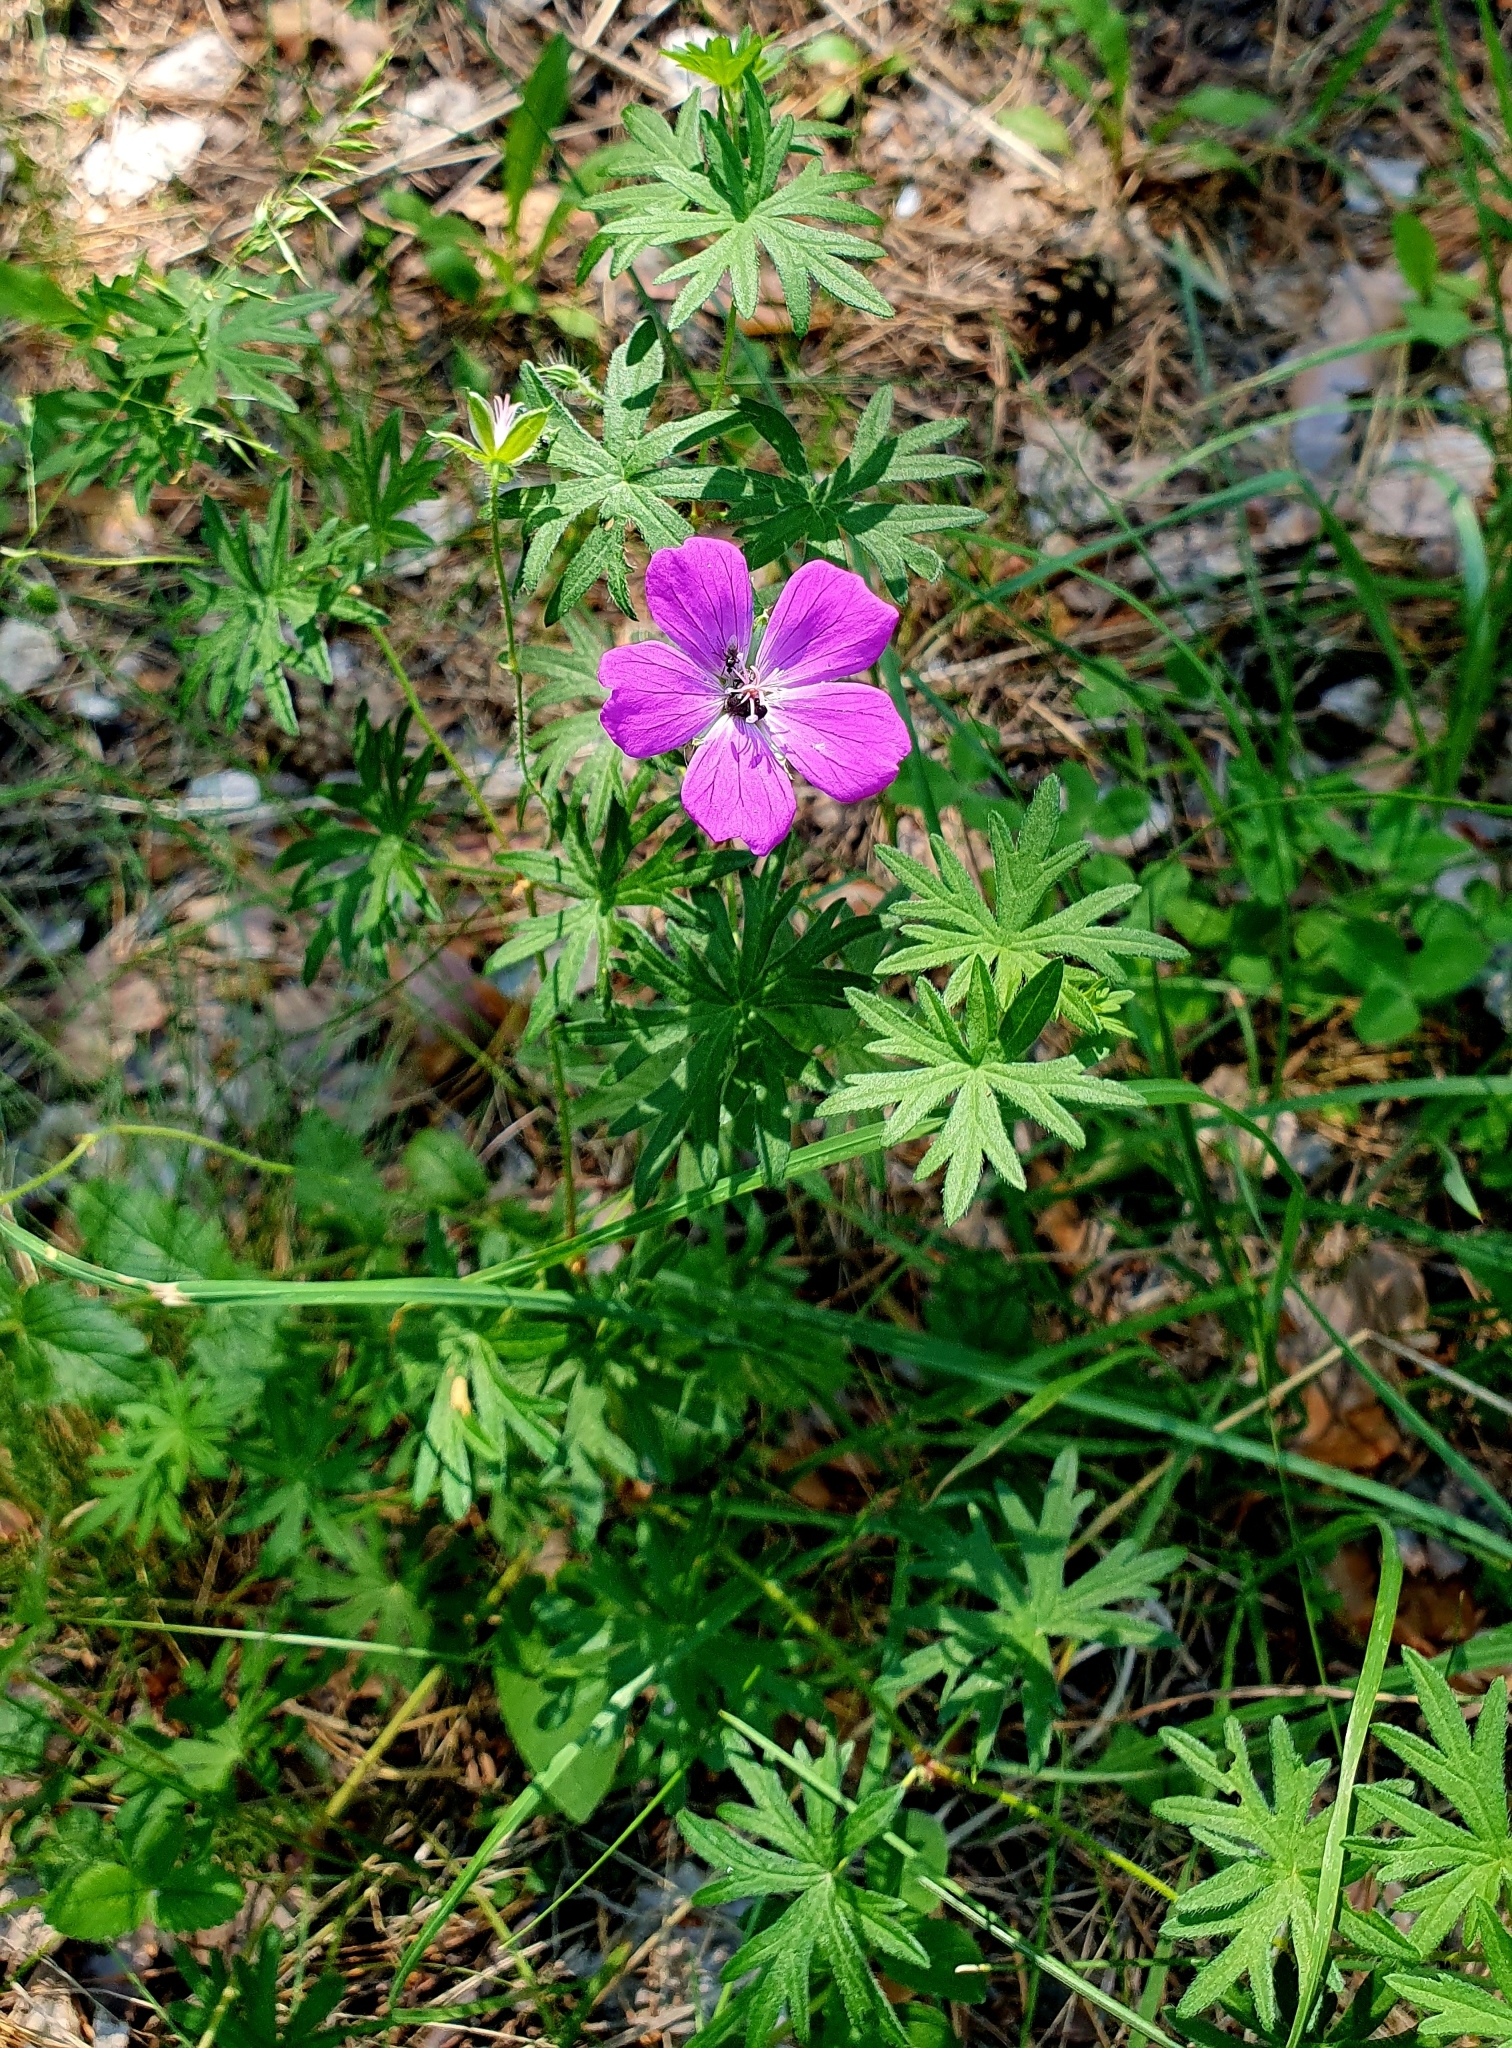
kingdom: Plantae
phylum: Tracheophyta
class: Magnoliopsida
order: Geraniales
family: Geraniaceae
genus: Geranium
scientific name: Geranium sanguineum
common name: Bloody crane's-bill
